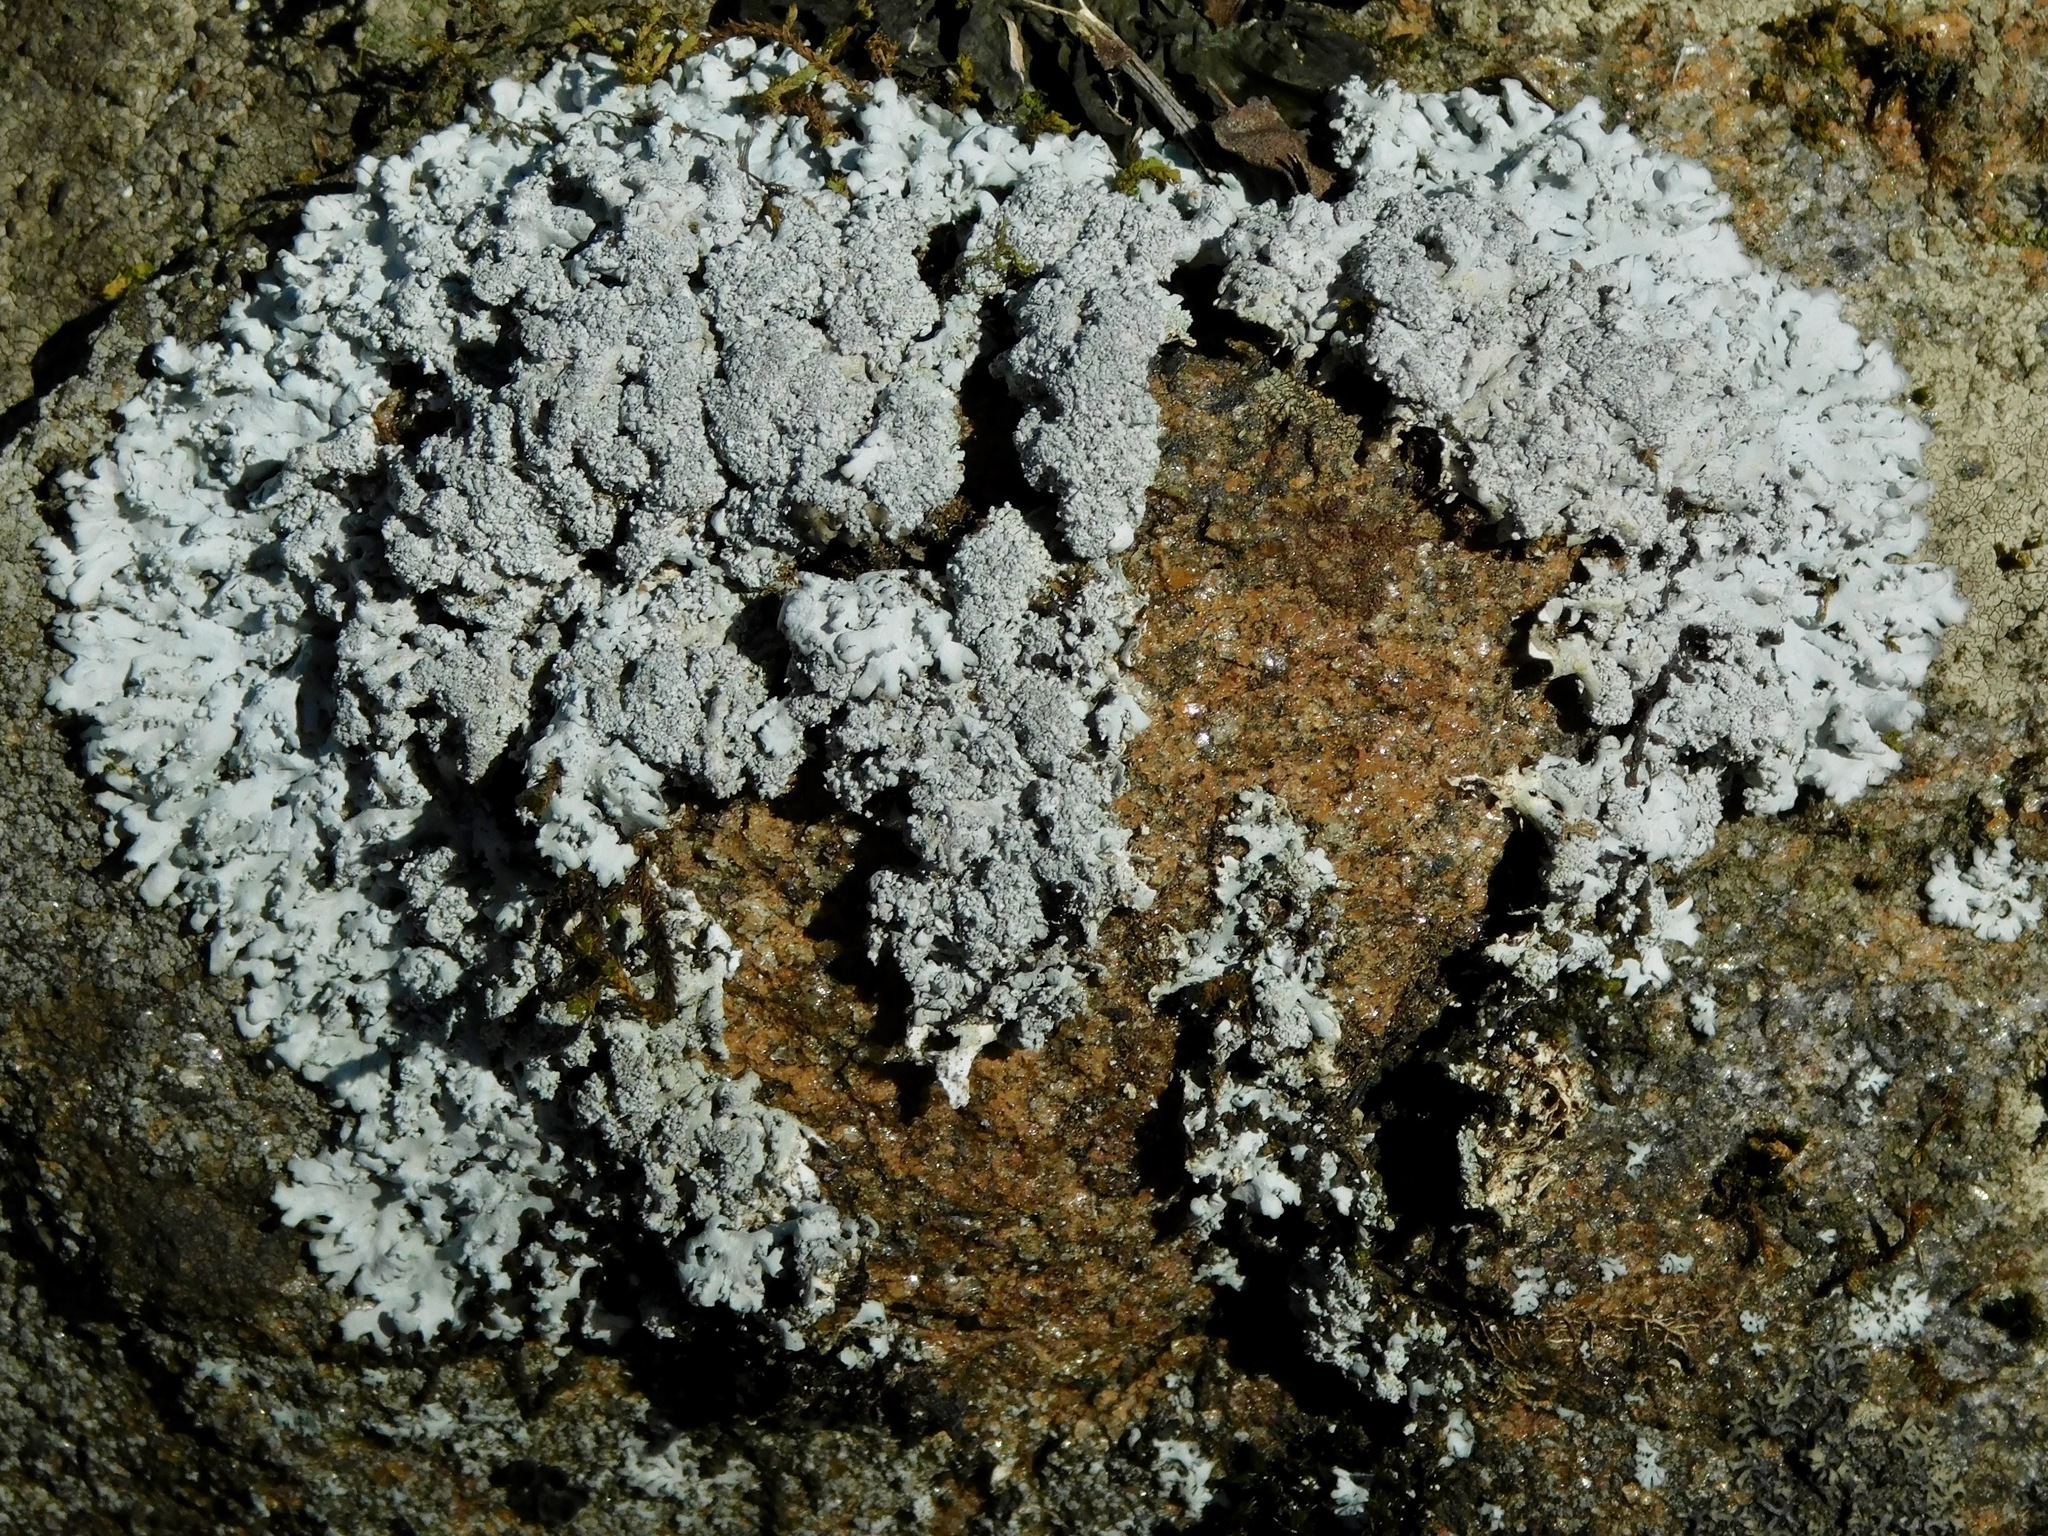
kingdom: Fungi
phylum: Ascomycota
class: Lecanoromycetes
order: Caliciales
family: Caliciaceae
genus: Pyxine
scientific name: Pyxine sorediata
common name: Mustard lichen
